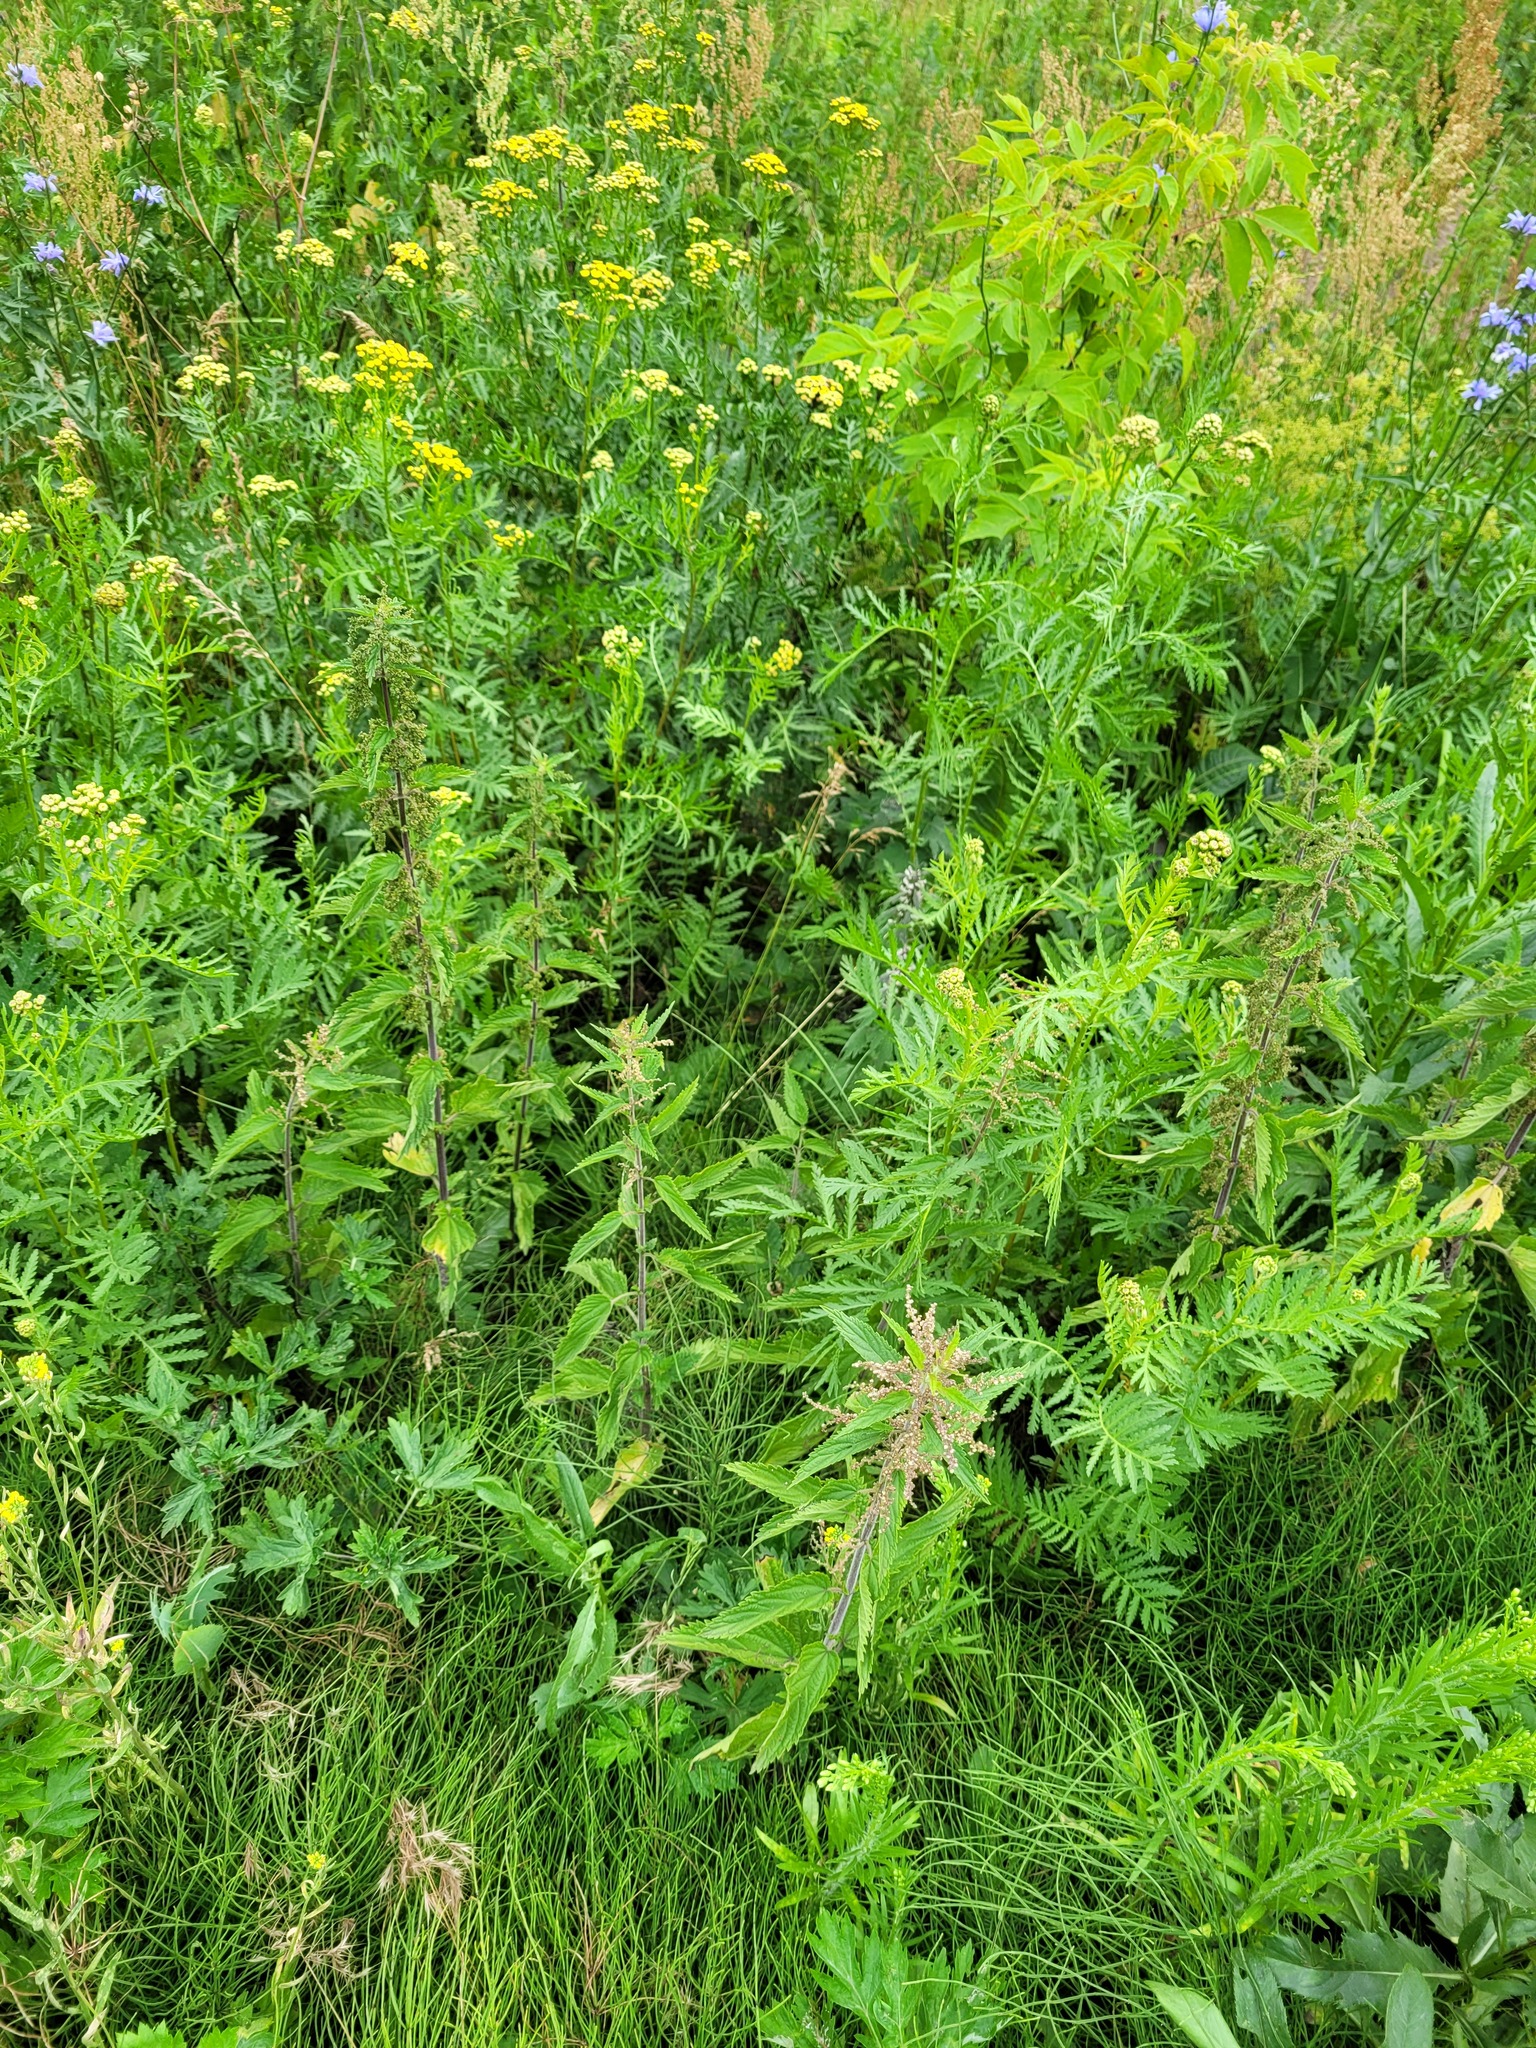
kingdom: Plantae
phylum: Tracheophyta
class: Polypodiopsida
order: Equisetales
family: Equisetaceae
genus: Equisetum
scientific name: Equisetum arvense
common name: Field horsetail
